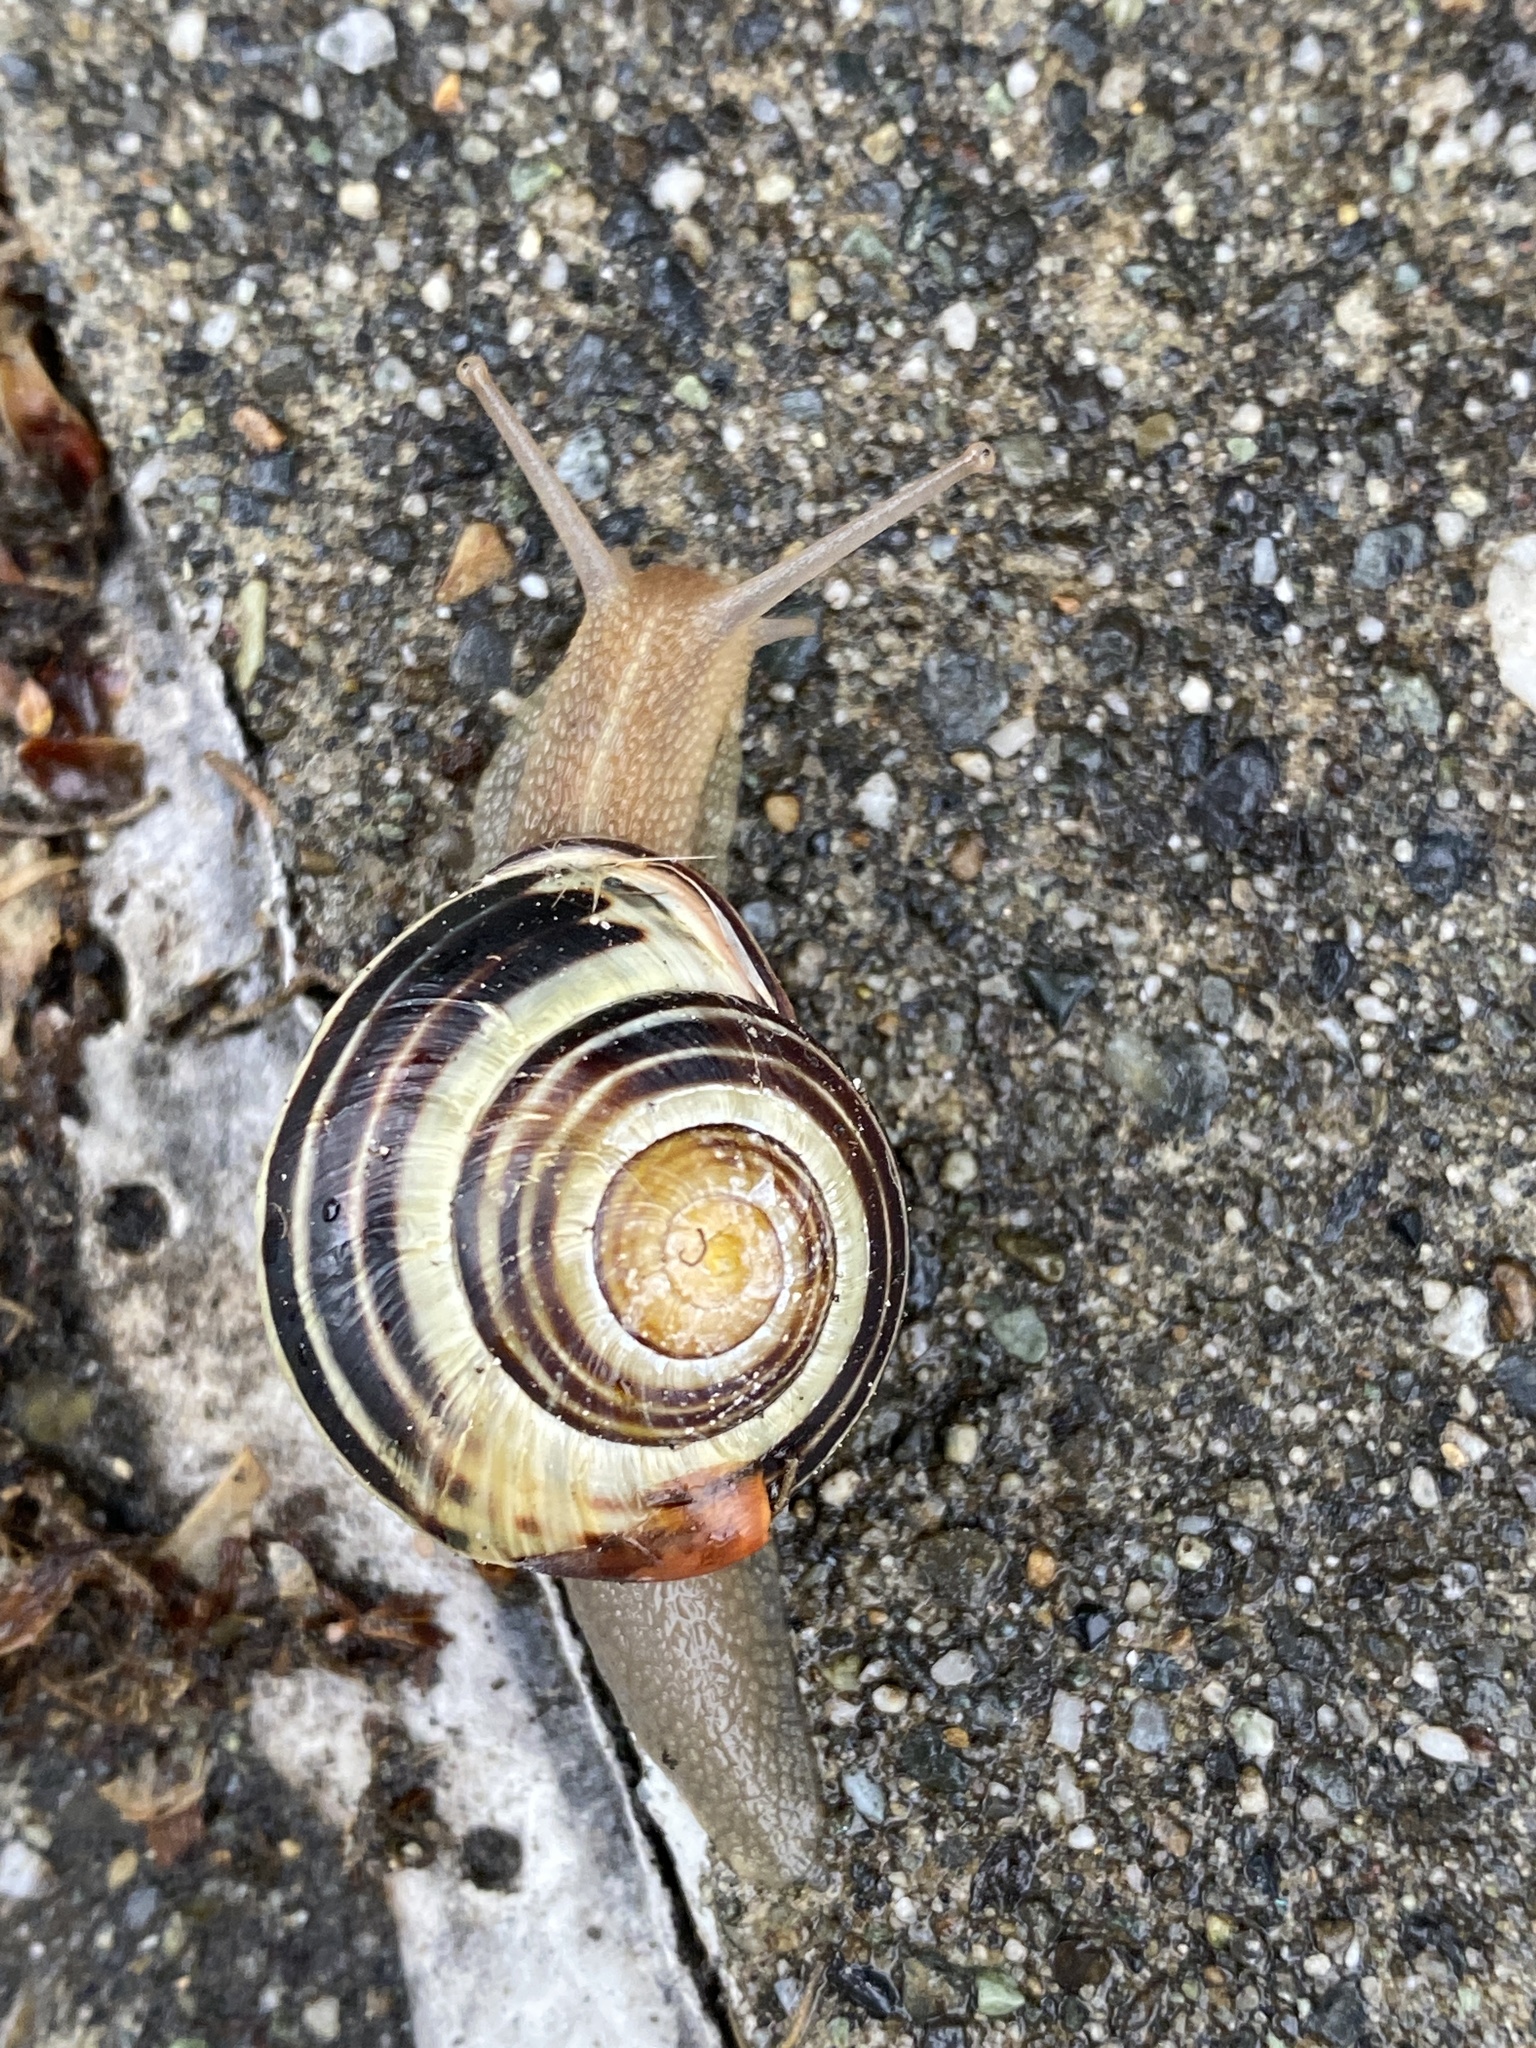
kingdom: Animalia
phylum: Mollusca
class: Gastropoda
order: Stylommatophora
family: Helicidae
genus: Cepaea
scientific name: Cepaea nemoralis
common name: Grovesnail
